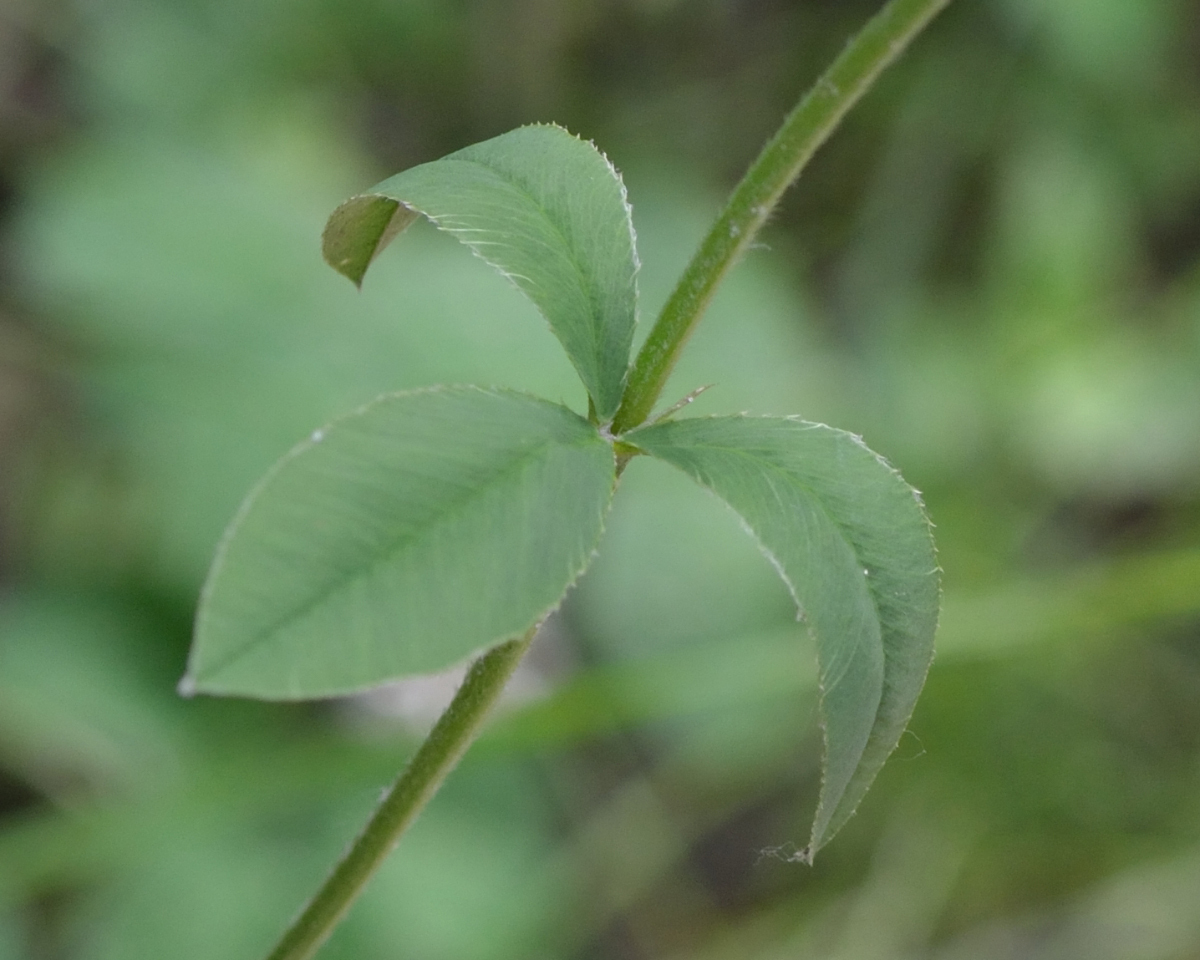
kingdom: Plantae
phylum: Tracheophyta
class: Magnoliopsida
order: Fabales
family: Fabaceae
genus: Trifolium
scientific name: Trifolium montanum
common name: Mountain clover
